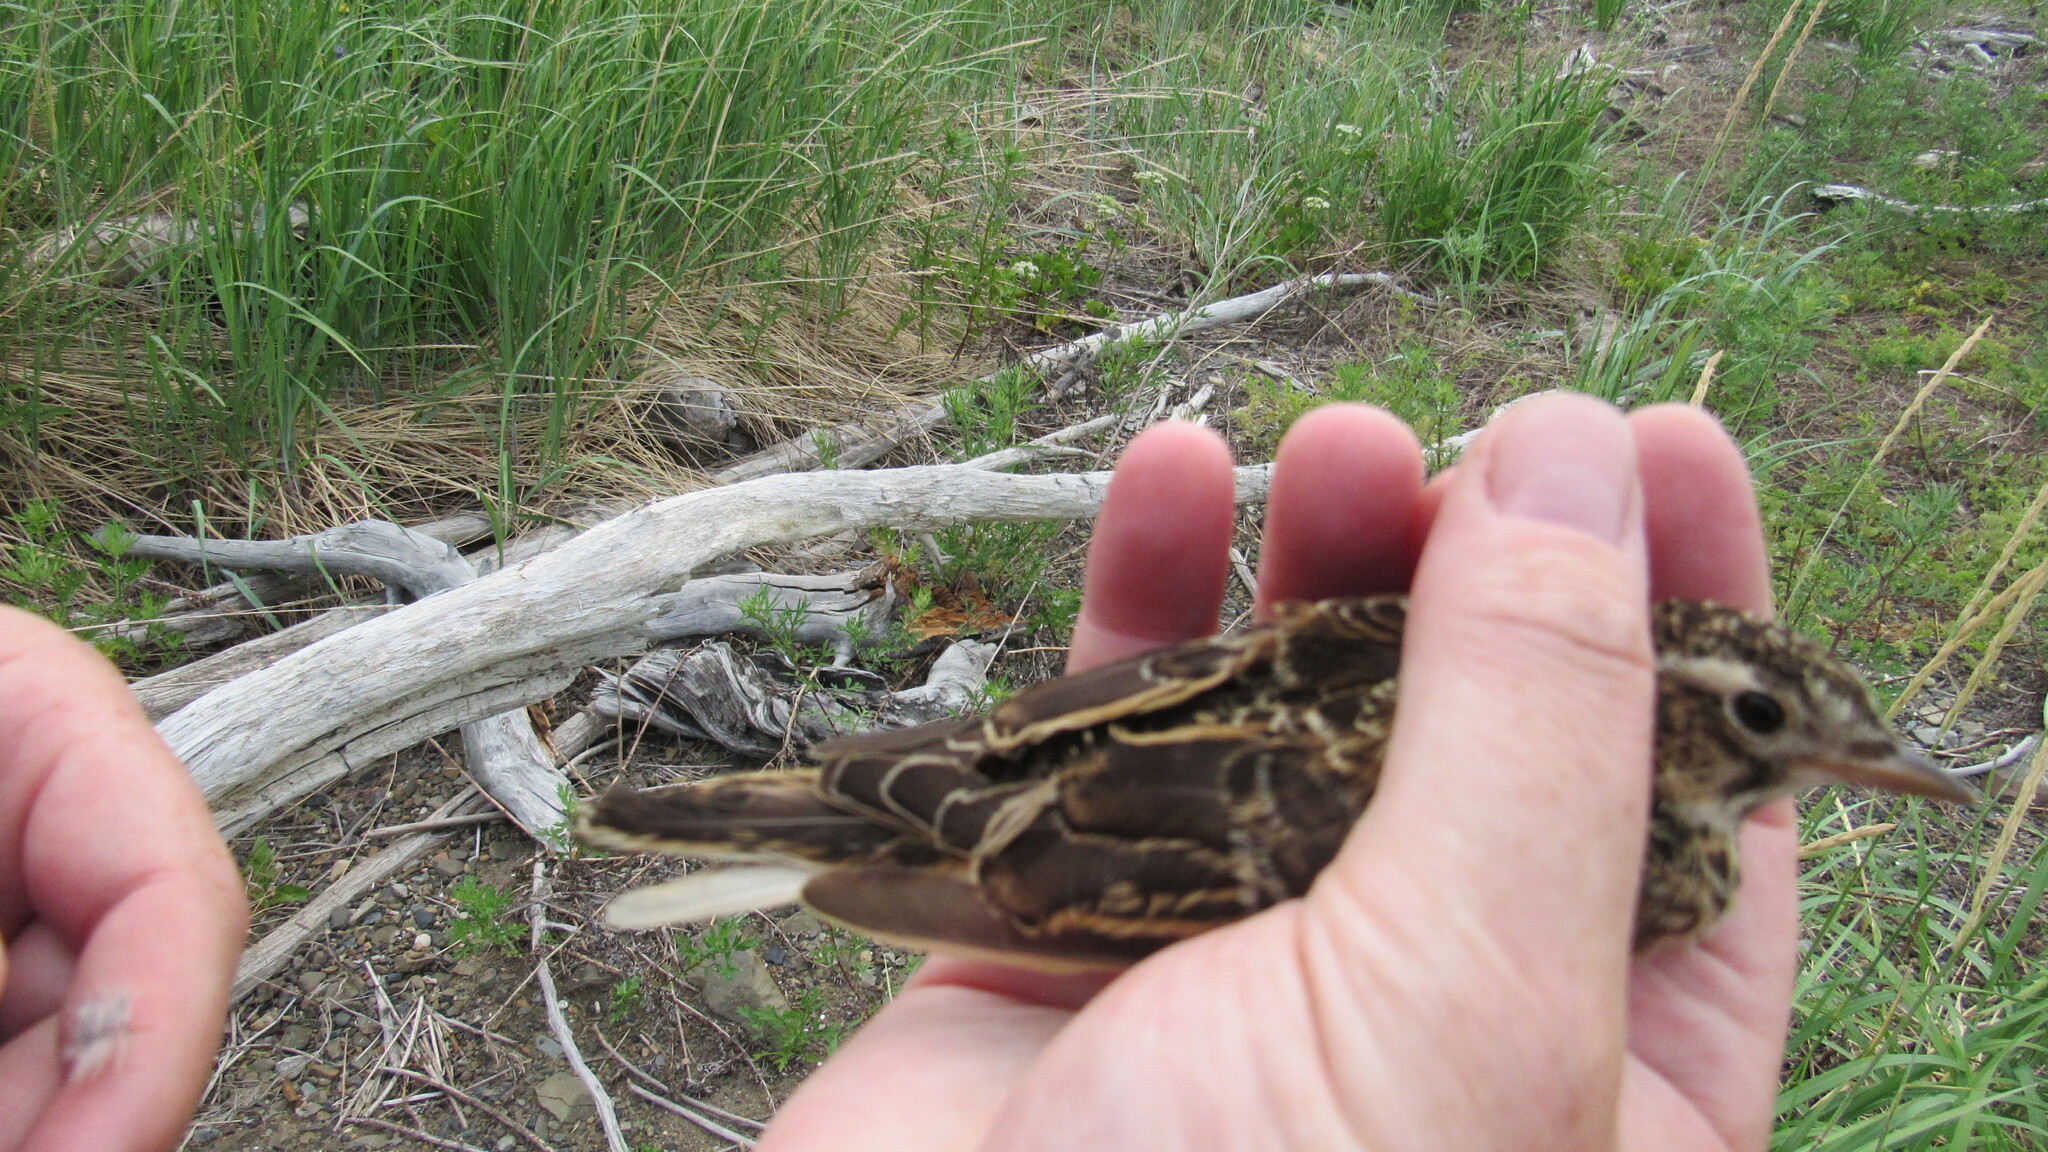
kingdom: Animalia
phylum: Chordata
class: Aves
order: Passeriformes
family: Alaudidae
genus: Alauda
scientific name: Alauda arvensis
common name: Eurasian skylark
